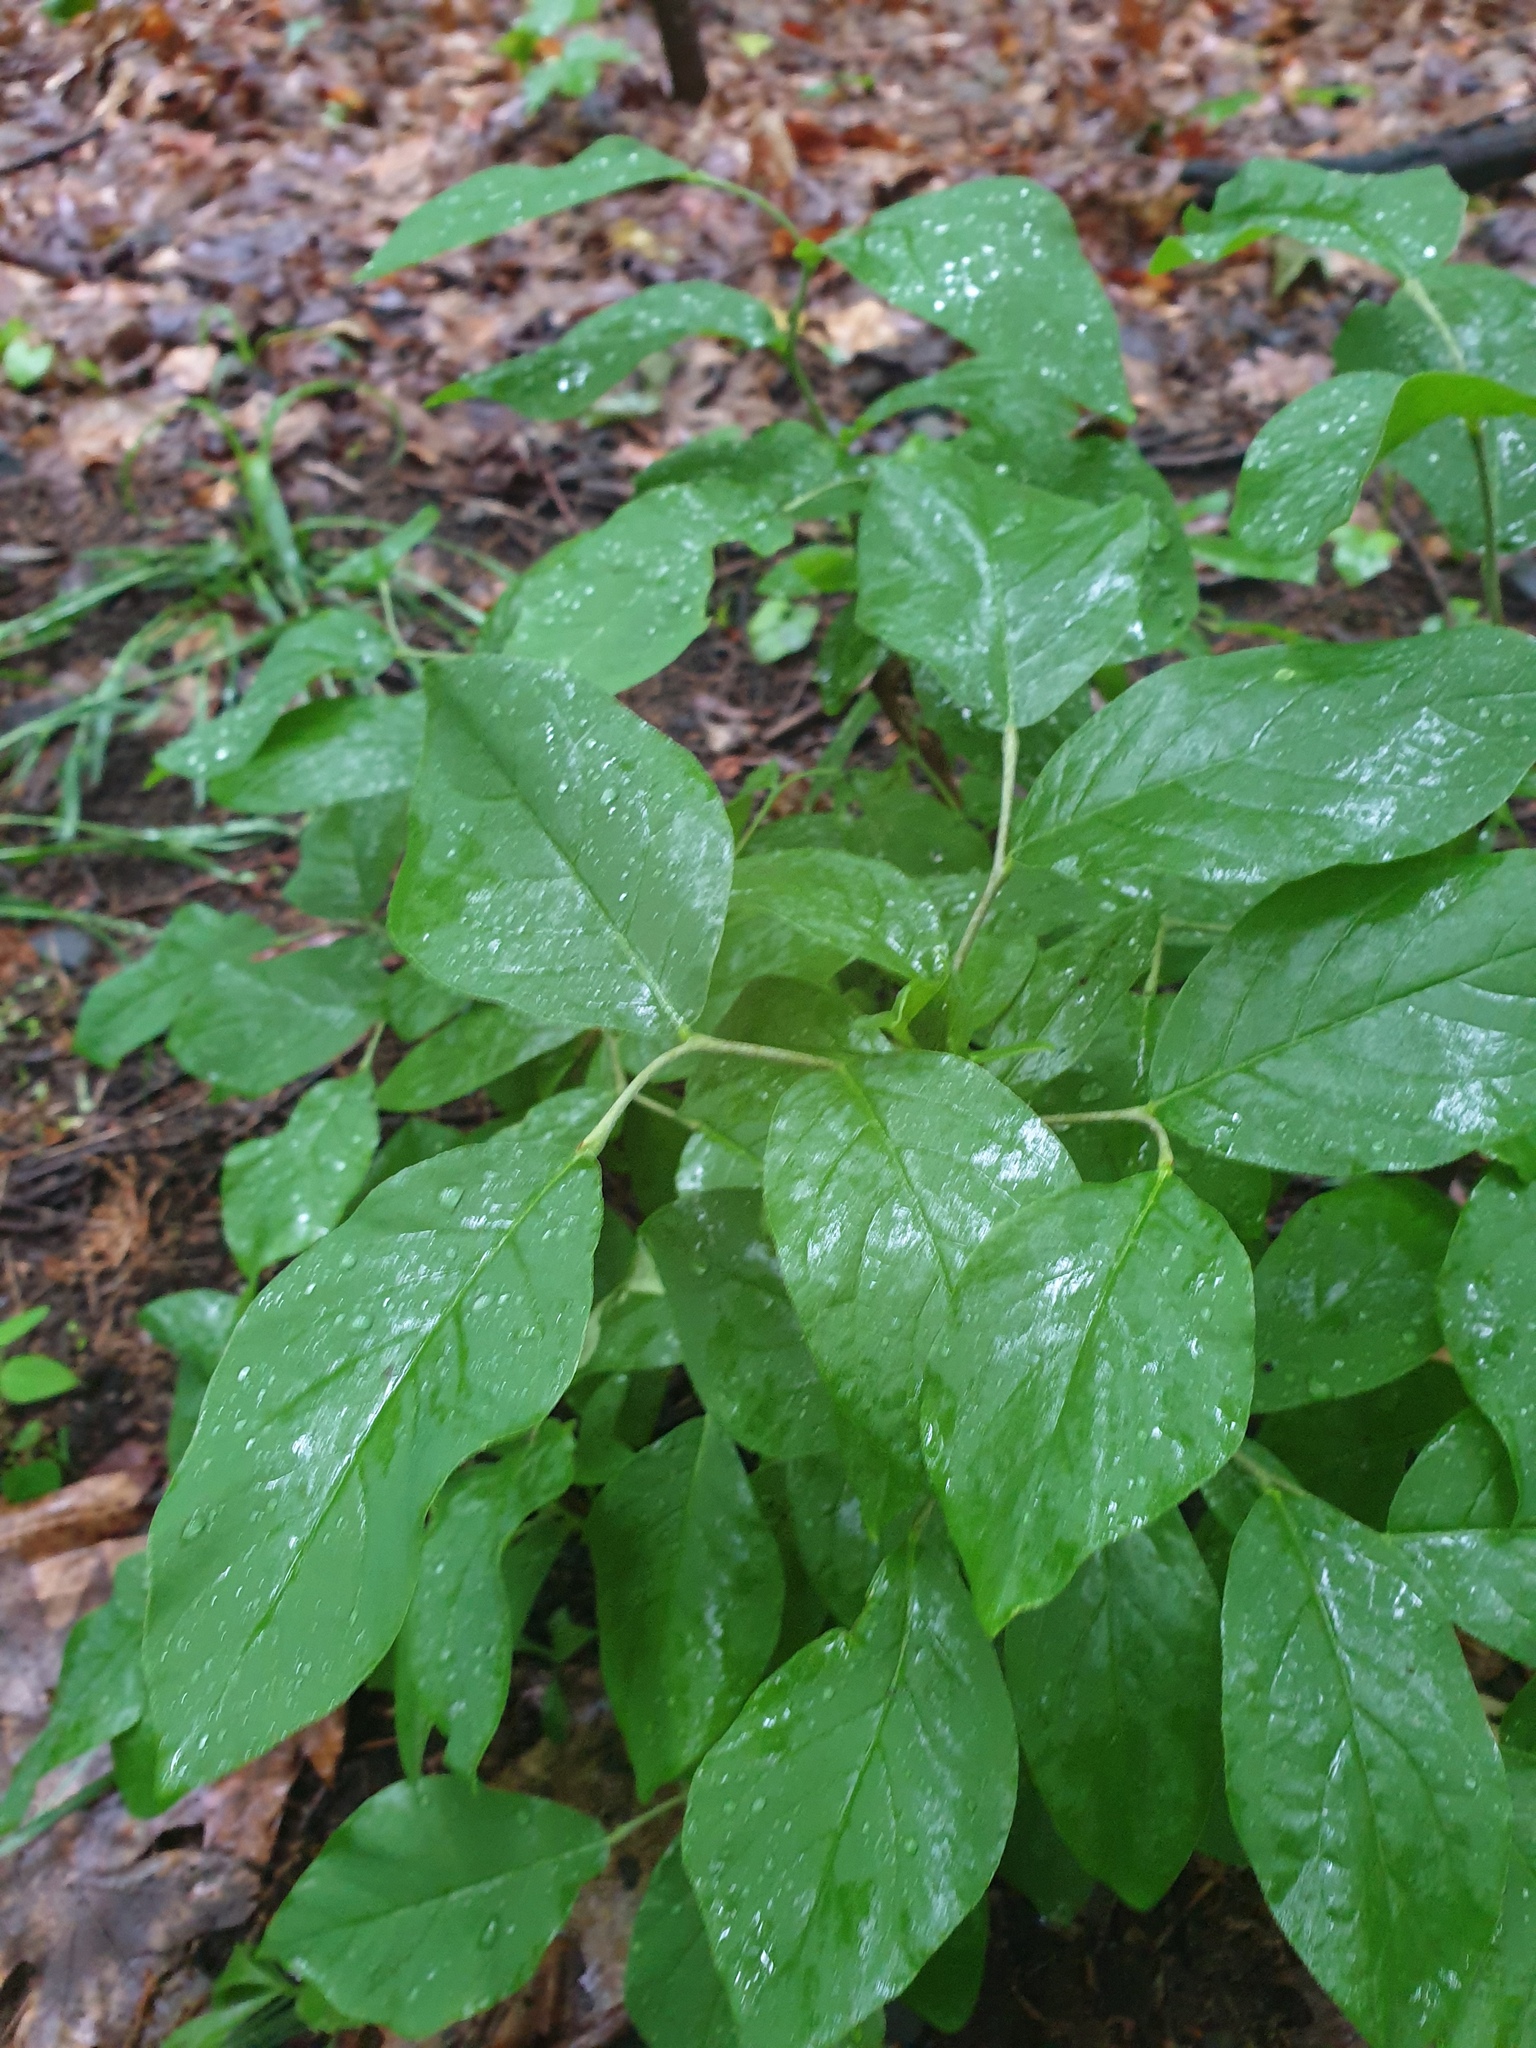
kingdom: Plantae
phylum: Tracheophyta
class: Magnoliopsida
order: Malvales
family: Thymelaeaceae
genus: Dirca
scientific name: Dirca palustris
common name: Leatherwood
